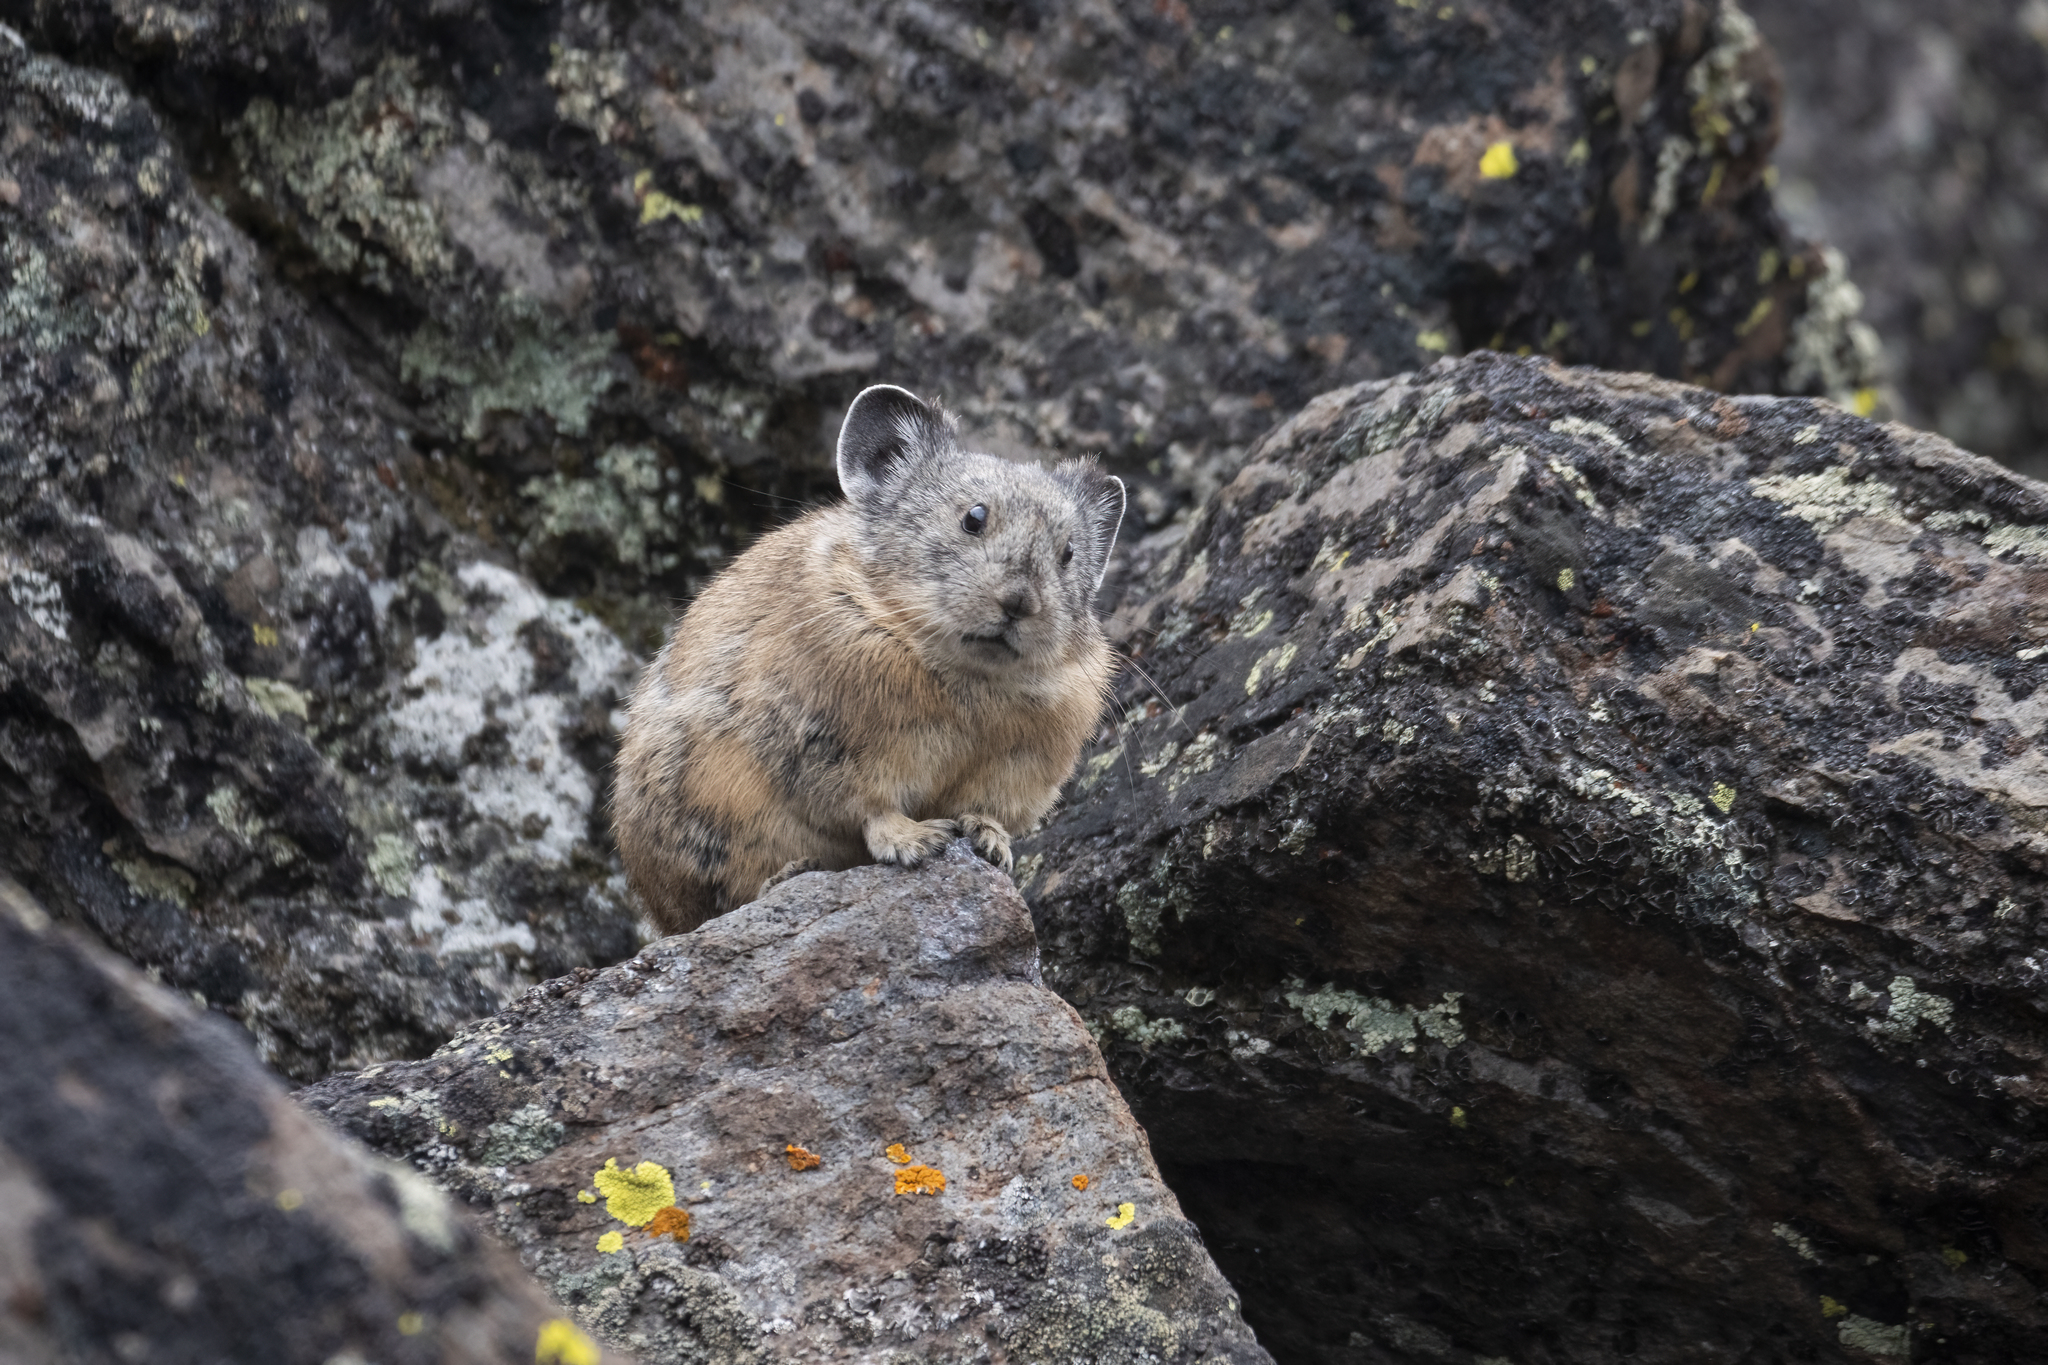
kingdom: Animalia
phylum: Chordata
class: Mammalia
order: Lagomorpha
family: Ochotonidae
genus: Ochotona
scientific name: Ochotona princeps
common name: American pika
